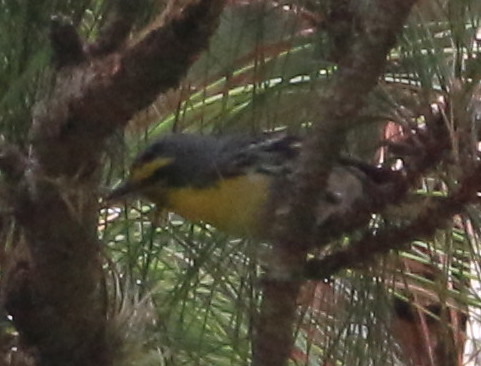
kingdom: Animalia
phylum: Chordata
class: Aves
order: Passeriformes
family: Parulidae
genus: Setophaga
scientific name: Setophaga graciae
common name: Grace's warbler
